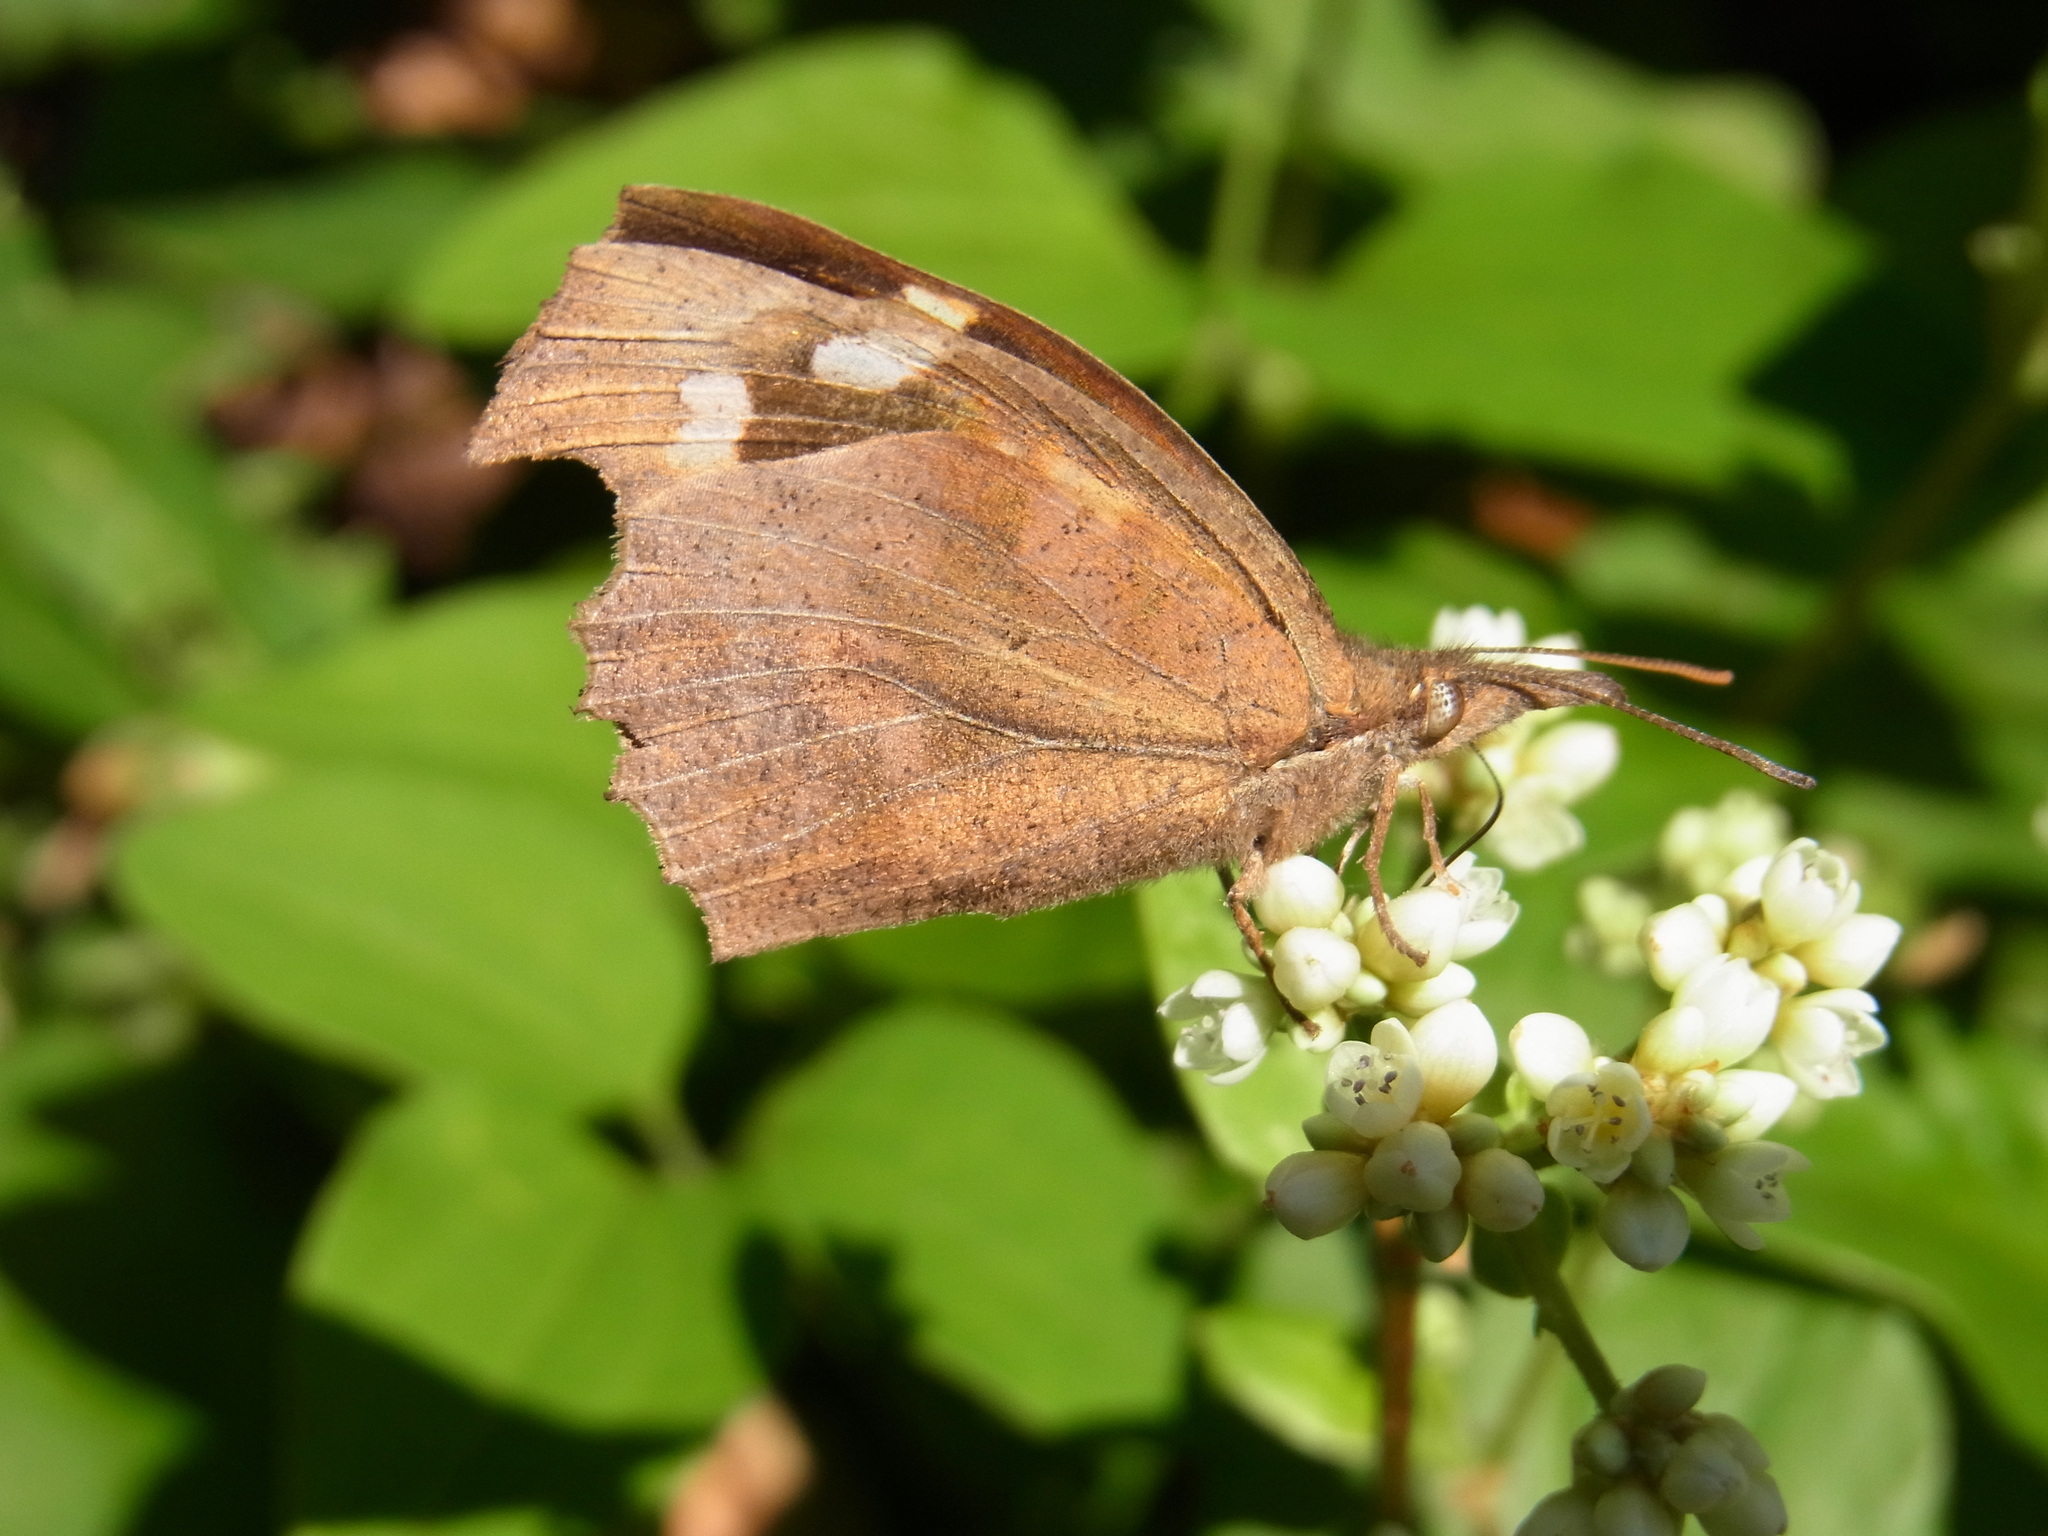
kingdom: Animalia
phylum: Arthropoda
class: Insecta
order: Lepidoptera
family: Nymphalidae
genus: Libythea
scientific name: Libythea lepita
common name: Common beak
